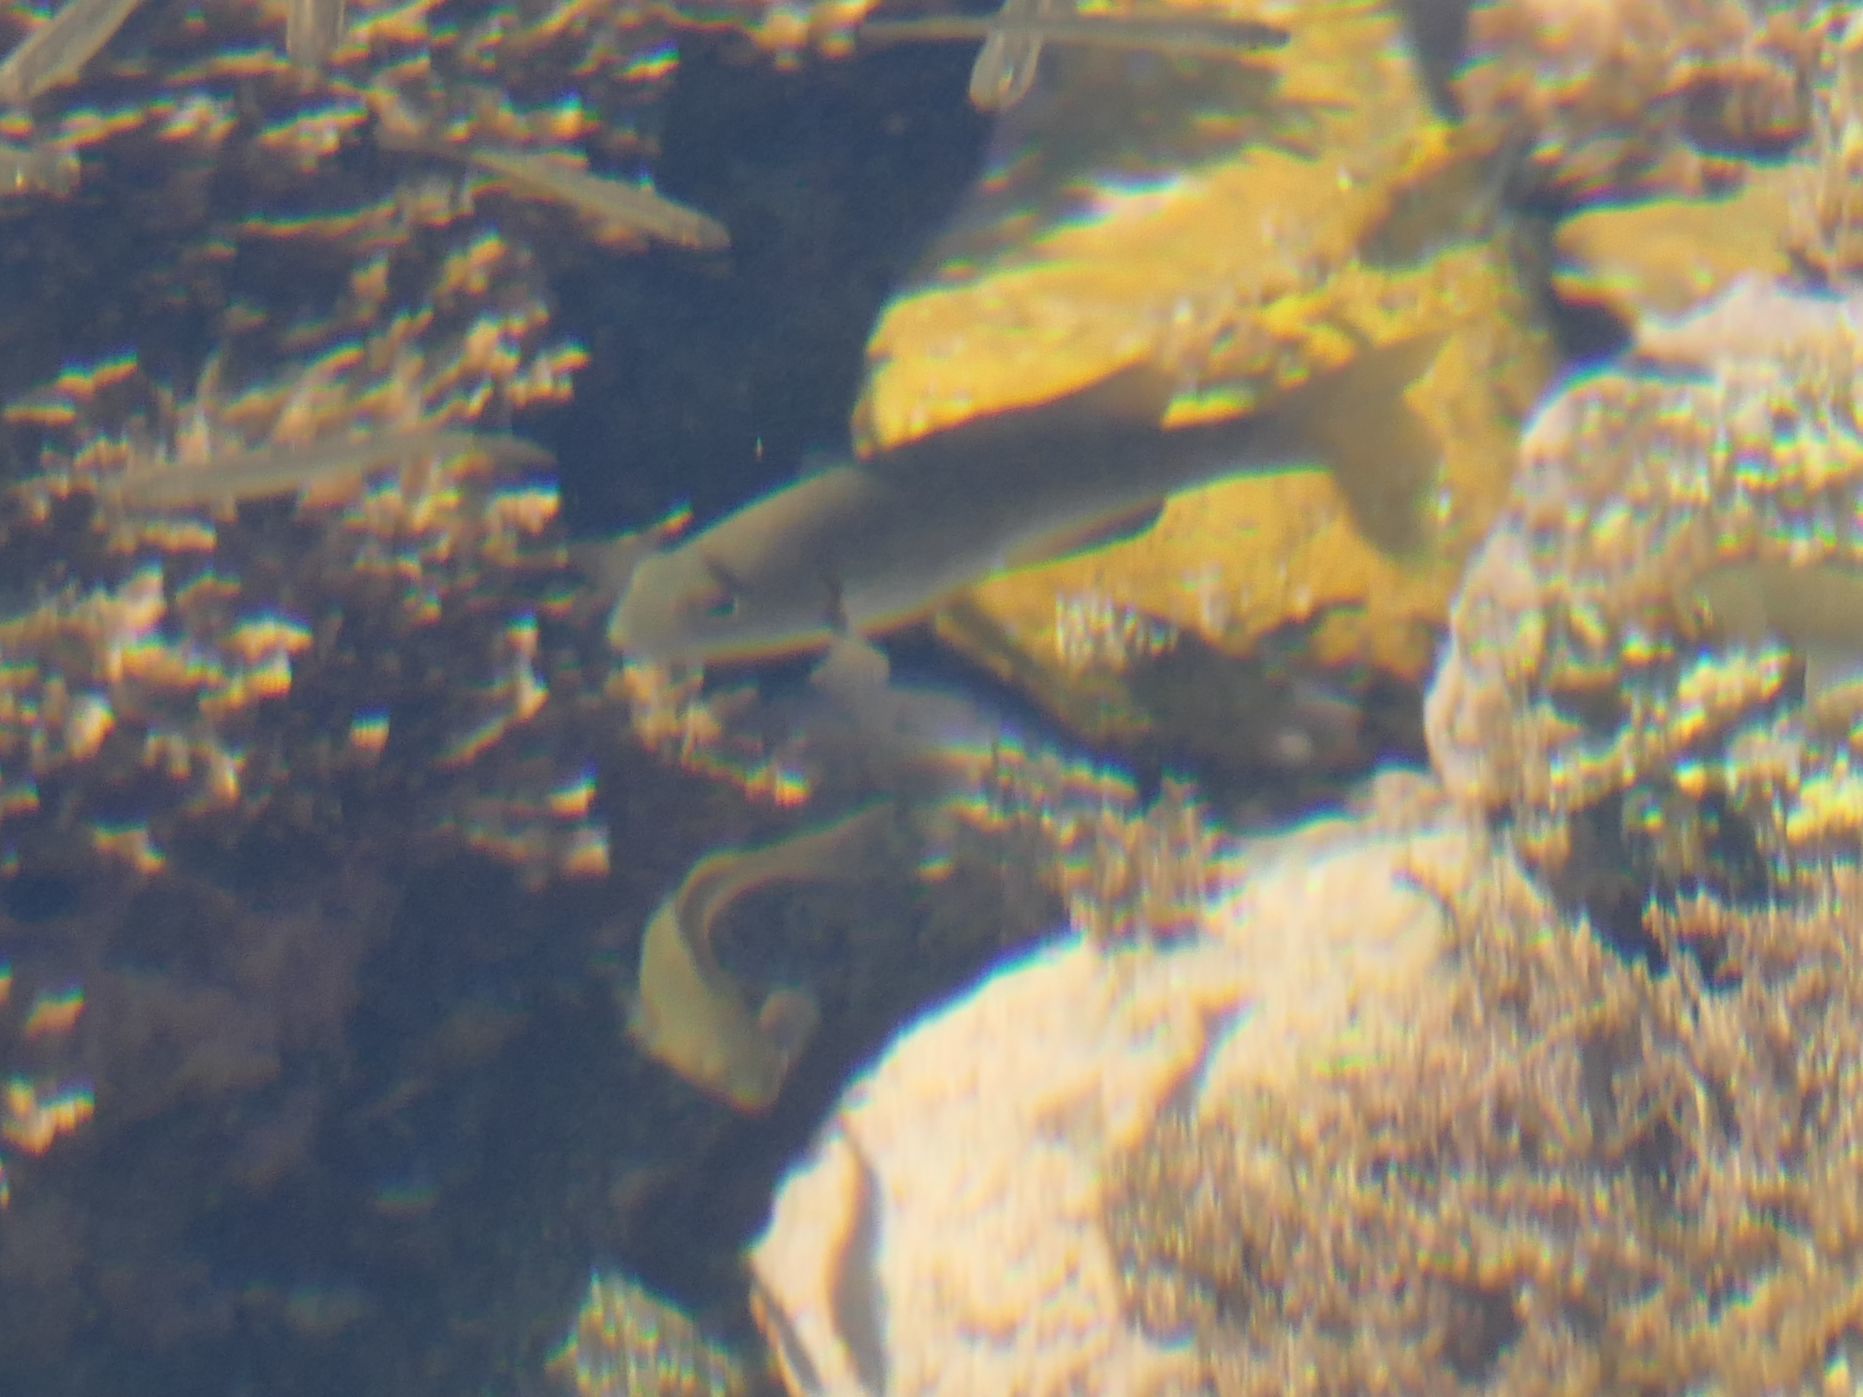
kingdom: Animalia
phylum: Chordata
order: Perciformes
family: Kyphosidae
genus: Girella
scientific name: Girella elevata
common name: Black bream
